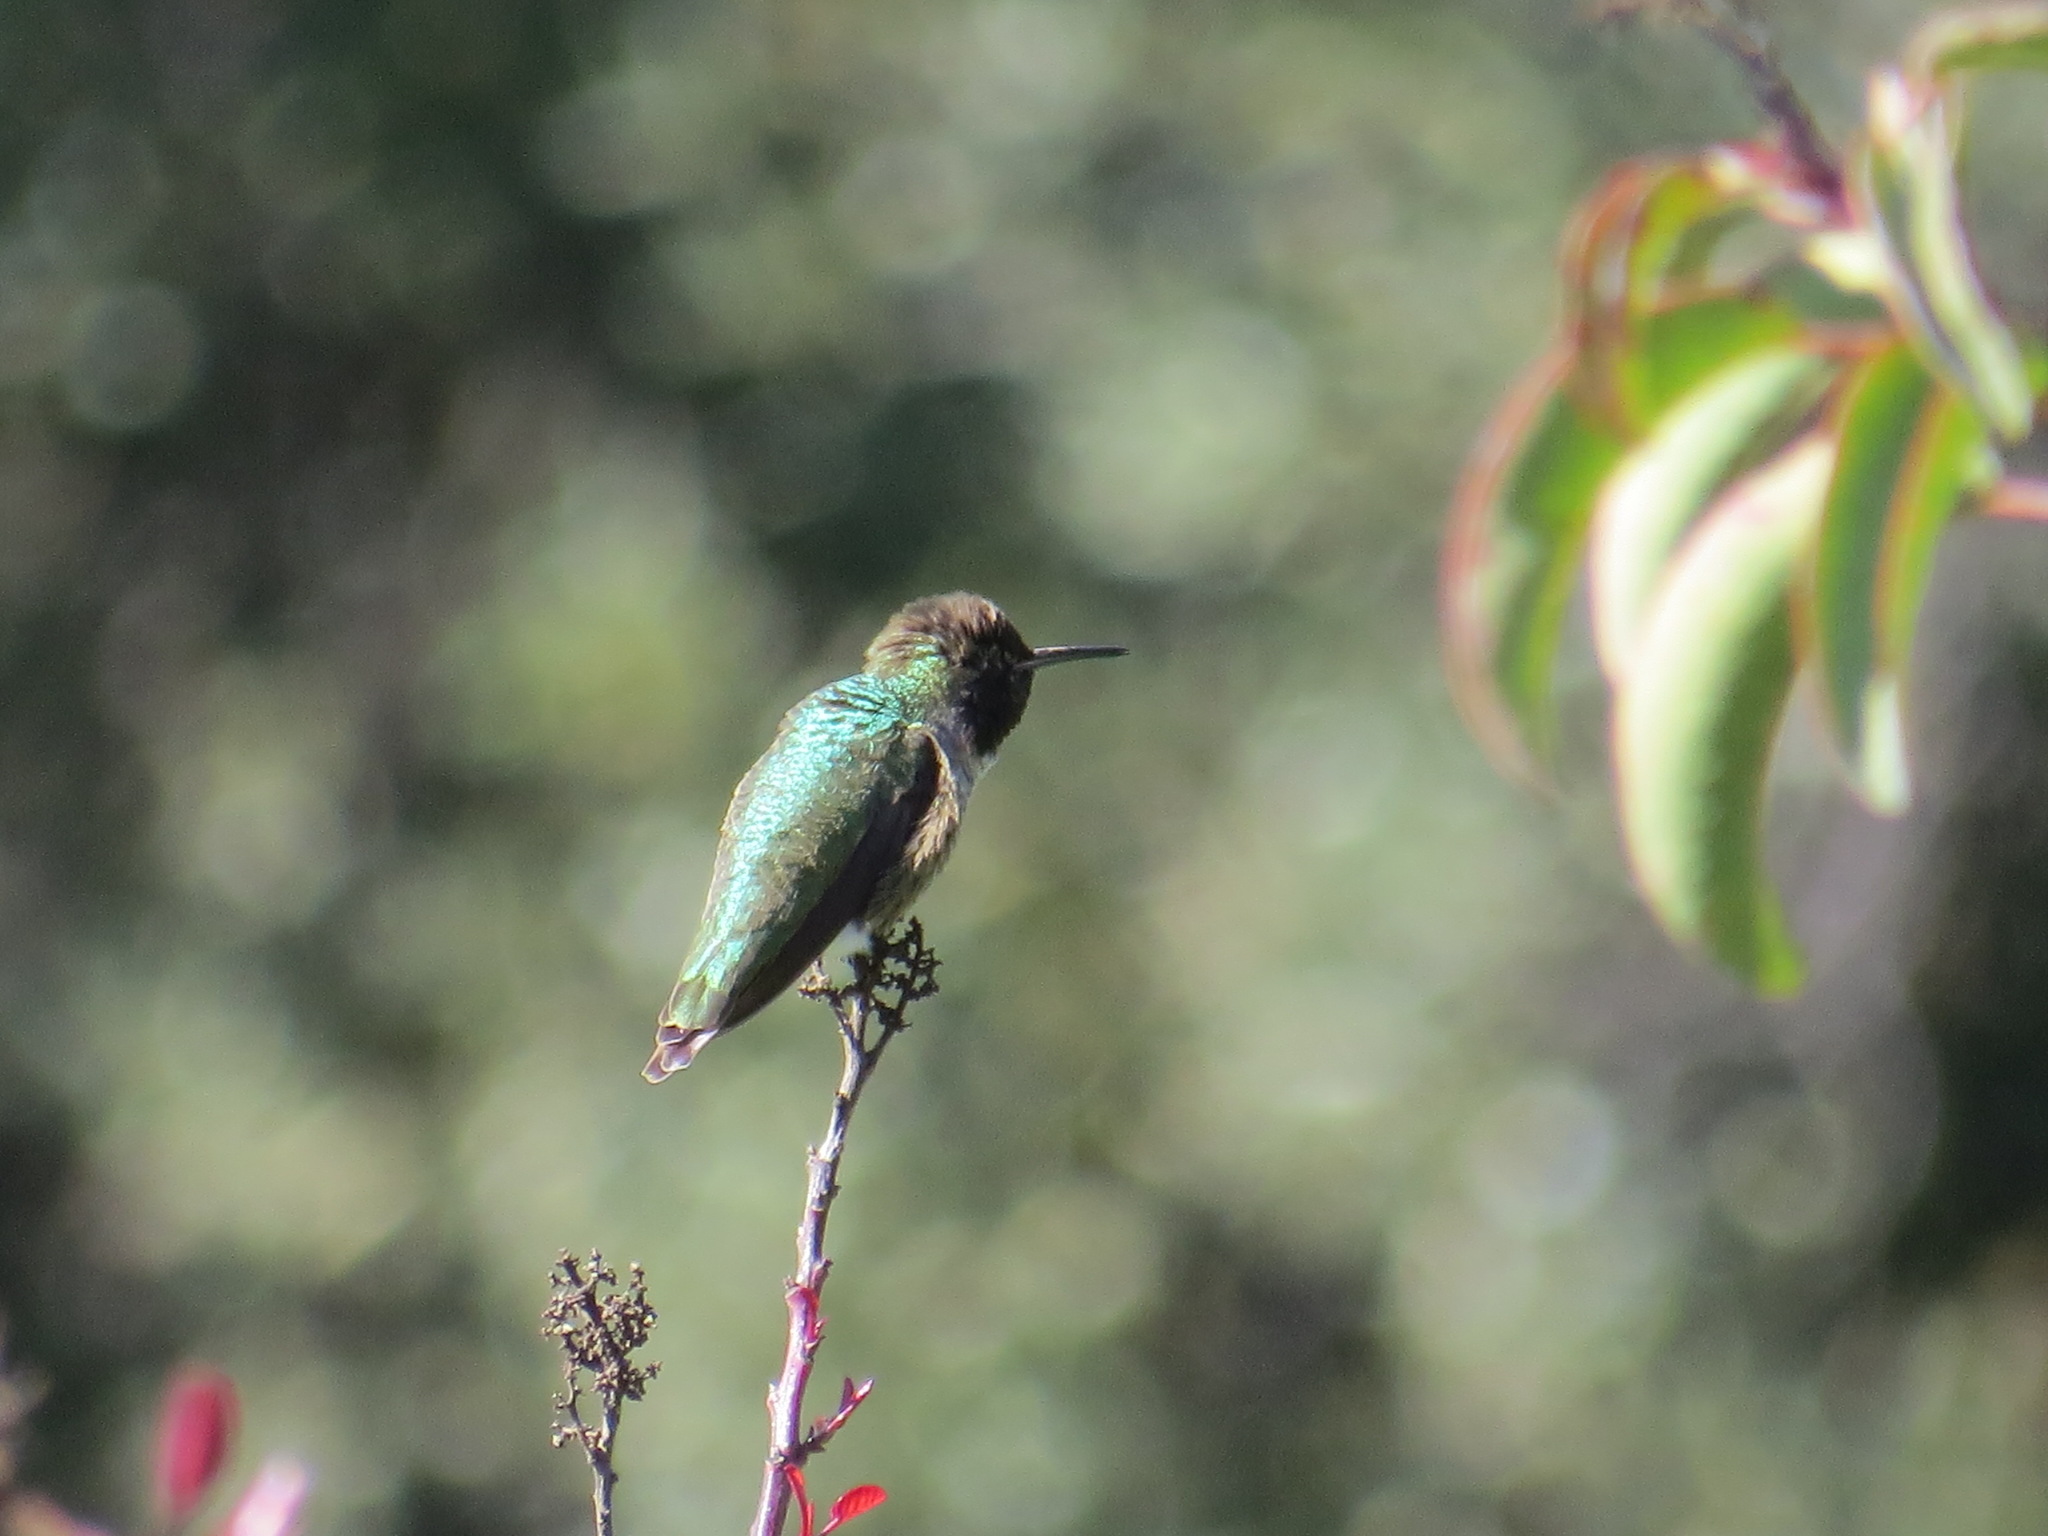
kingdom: Animalia
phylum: Chordata
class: Aves
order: Apodiformes
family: Trochilidae
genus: Calypte
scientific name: Calypte anna
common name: Anna's hummingbird
